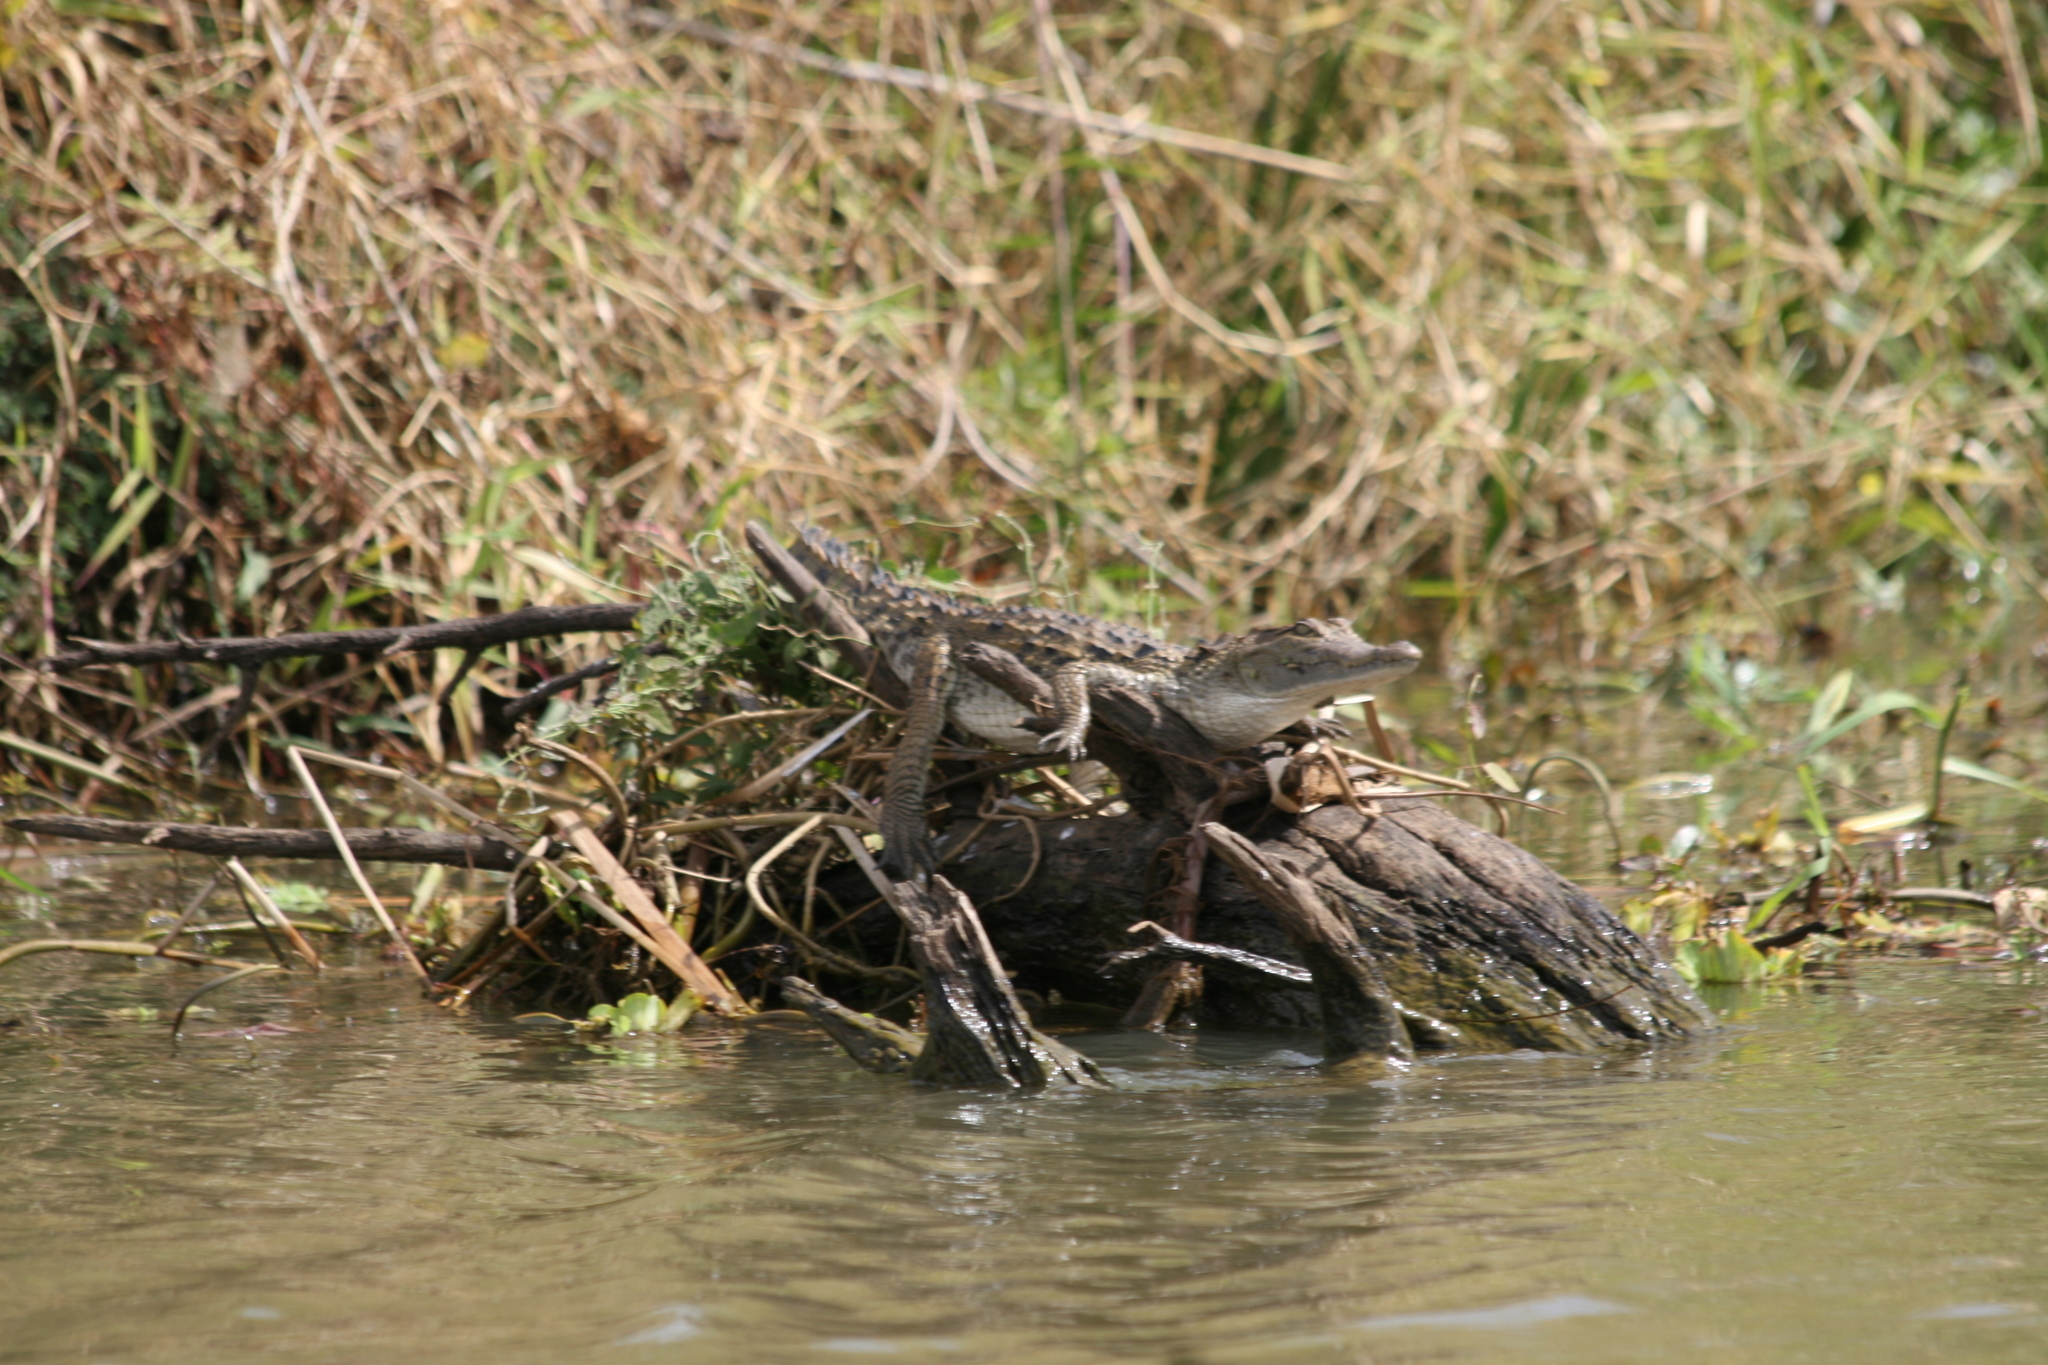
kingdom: Animalia
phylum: Chordata
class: Crocodylia
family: Crocodylidae
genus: Crocodylus
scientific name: Crocodylus suchus
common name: West african crocodile
